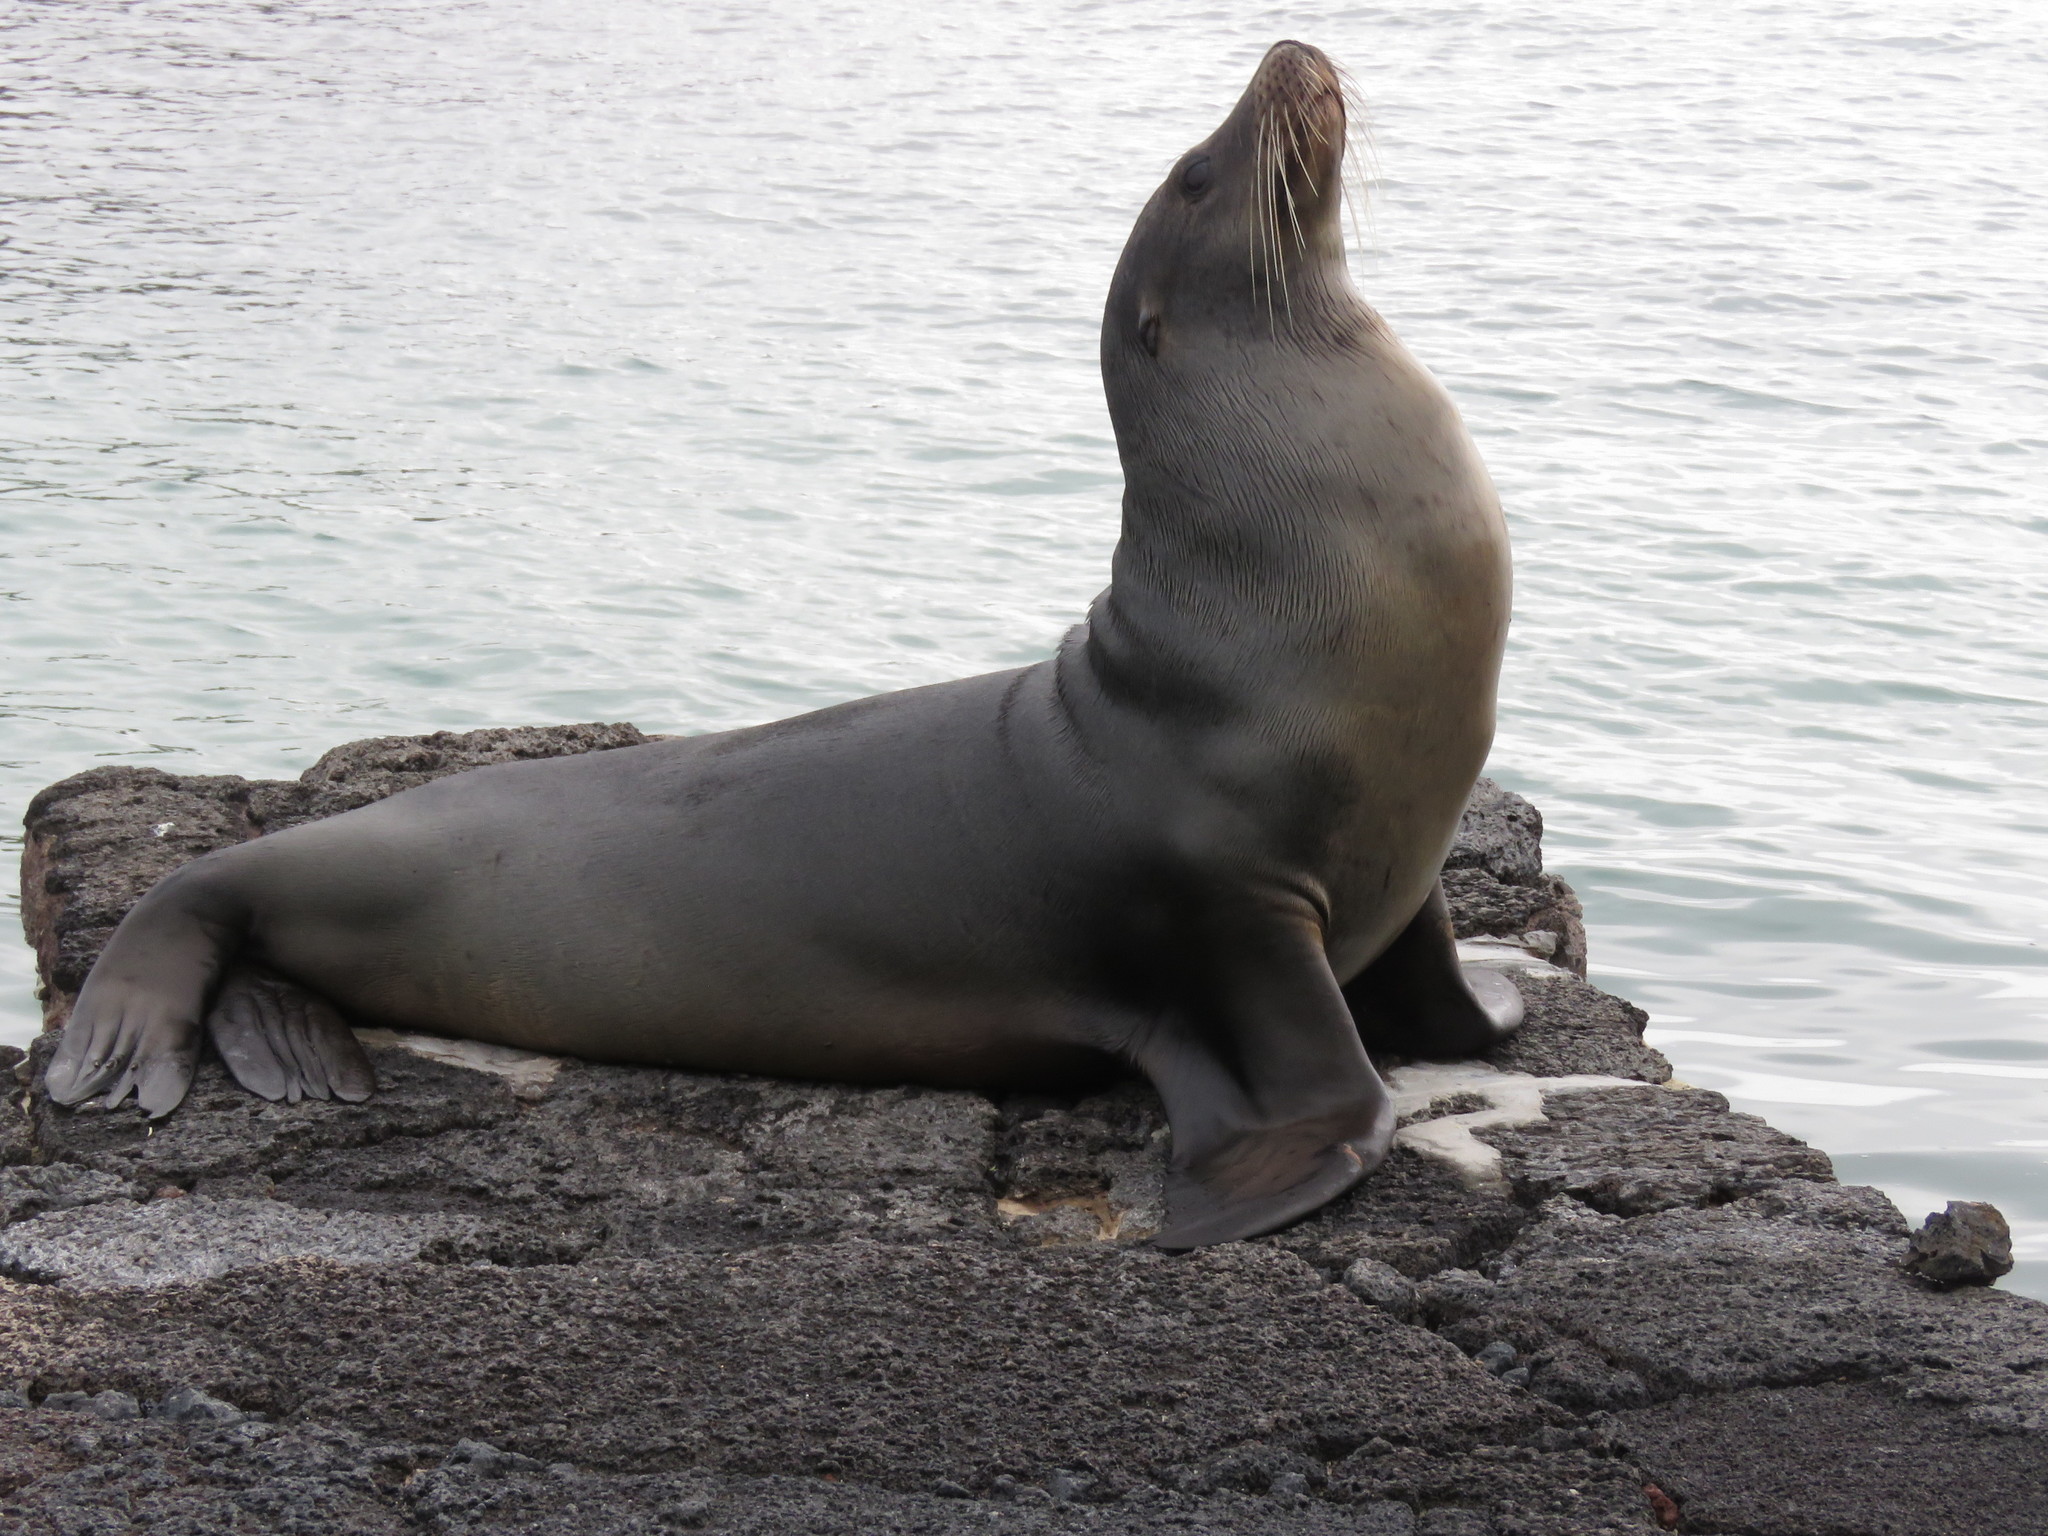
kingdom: Animalia
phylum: Chordata
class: Mammalia
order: Carnivora
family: Otariidae
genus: Zalophus
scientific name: Zalophus wollebaeki
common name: Galapagos sea lion
